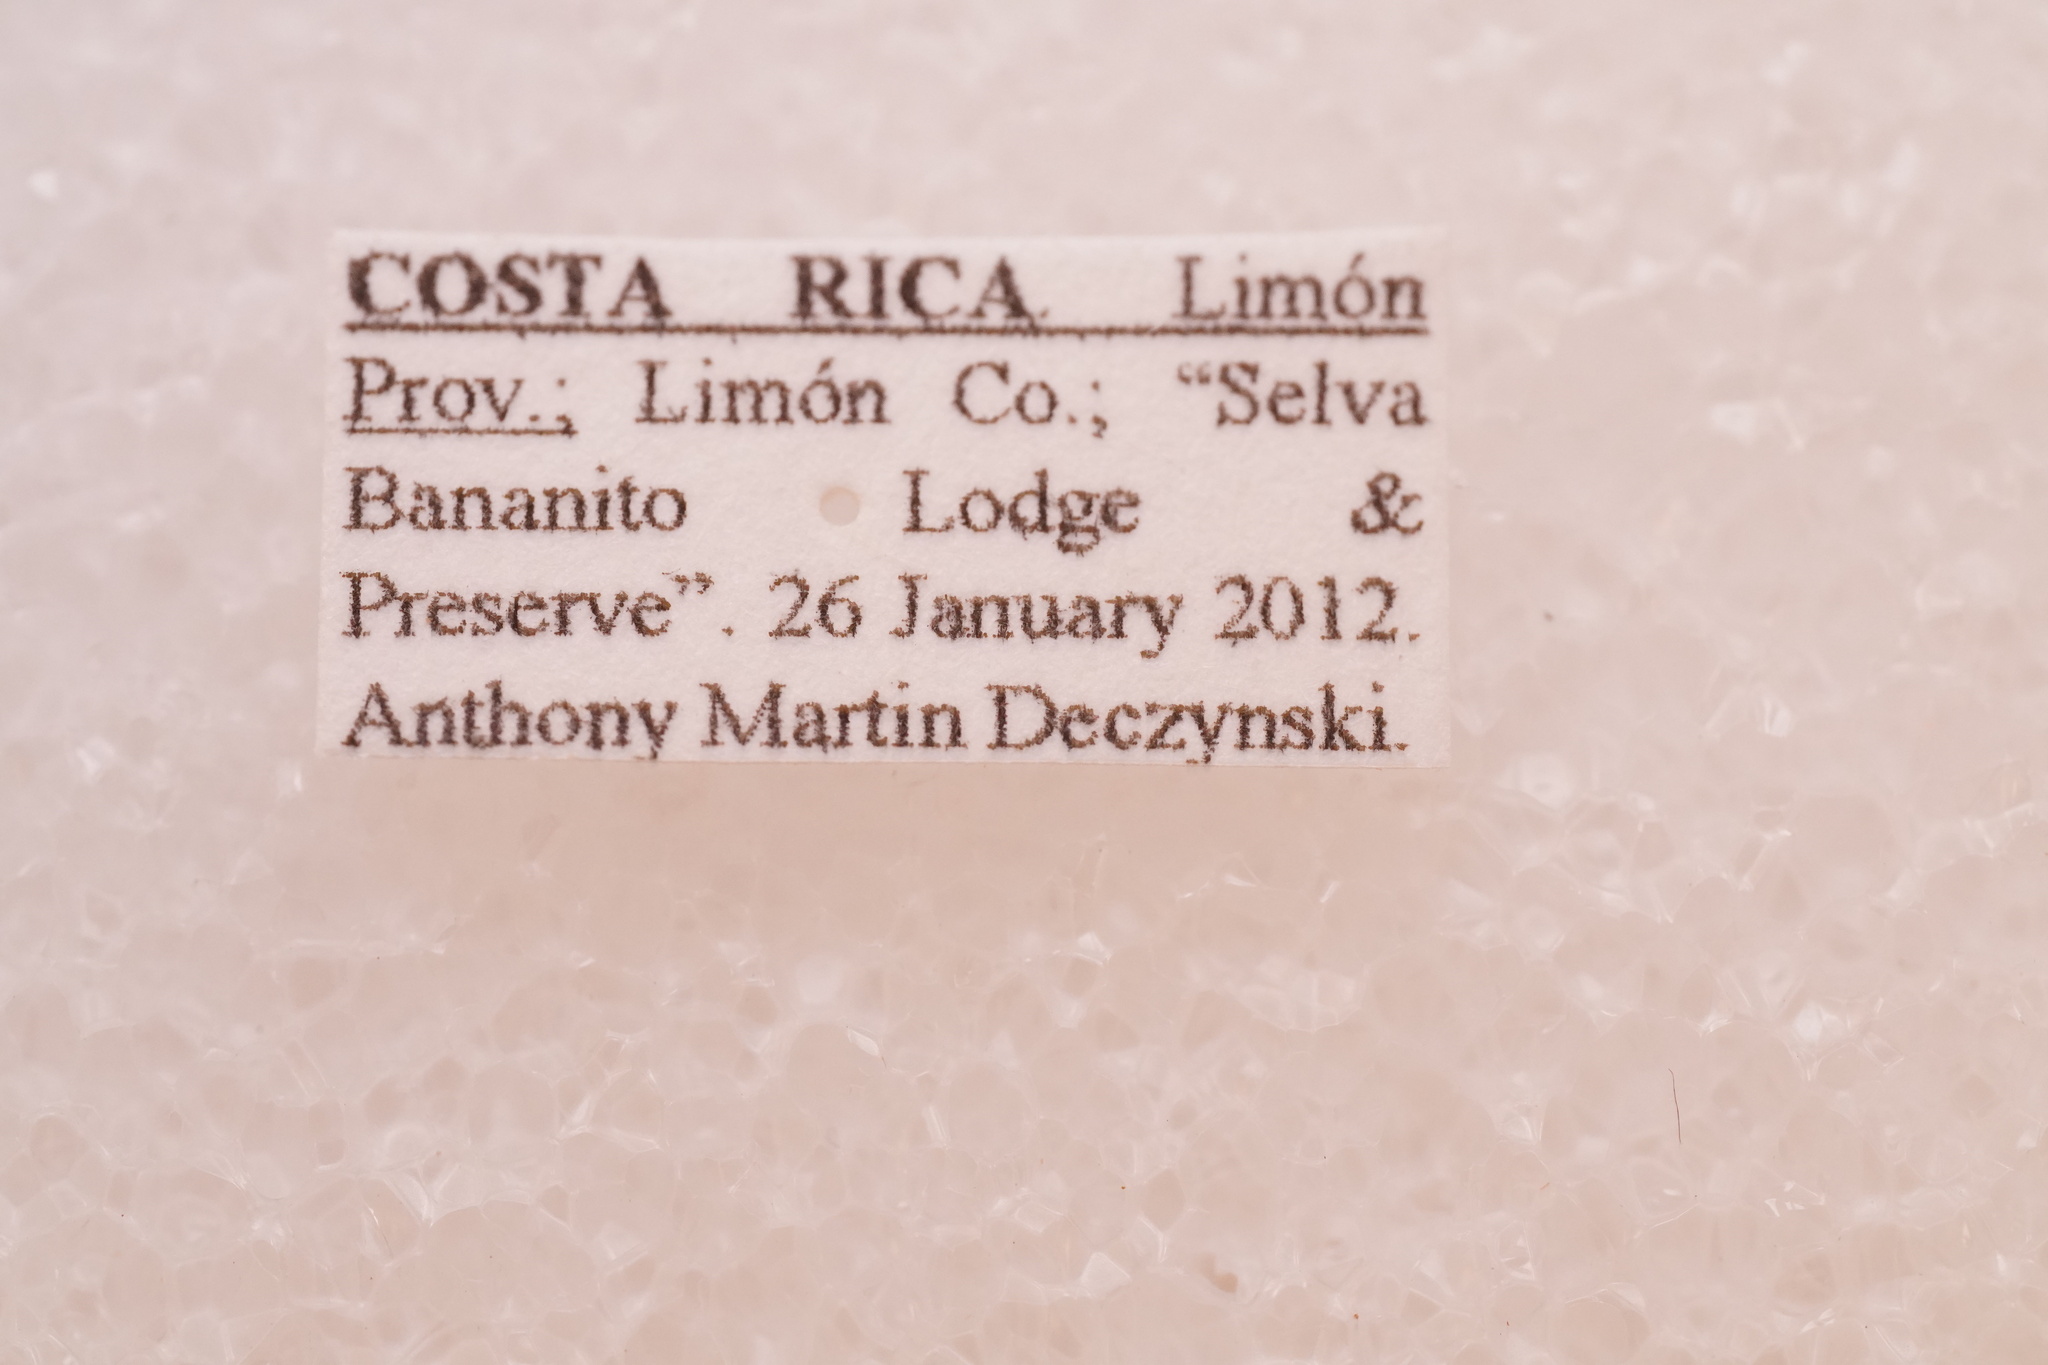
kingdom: Animalia
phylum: Arthropoda
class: Insecta
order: Coleoptera
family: Curculionidae
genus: Peridinetus
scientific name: Peridinetus cretaceus
